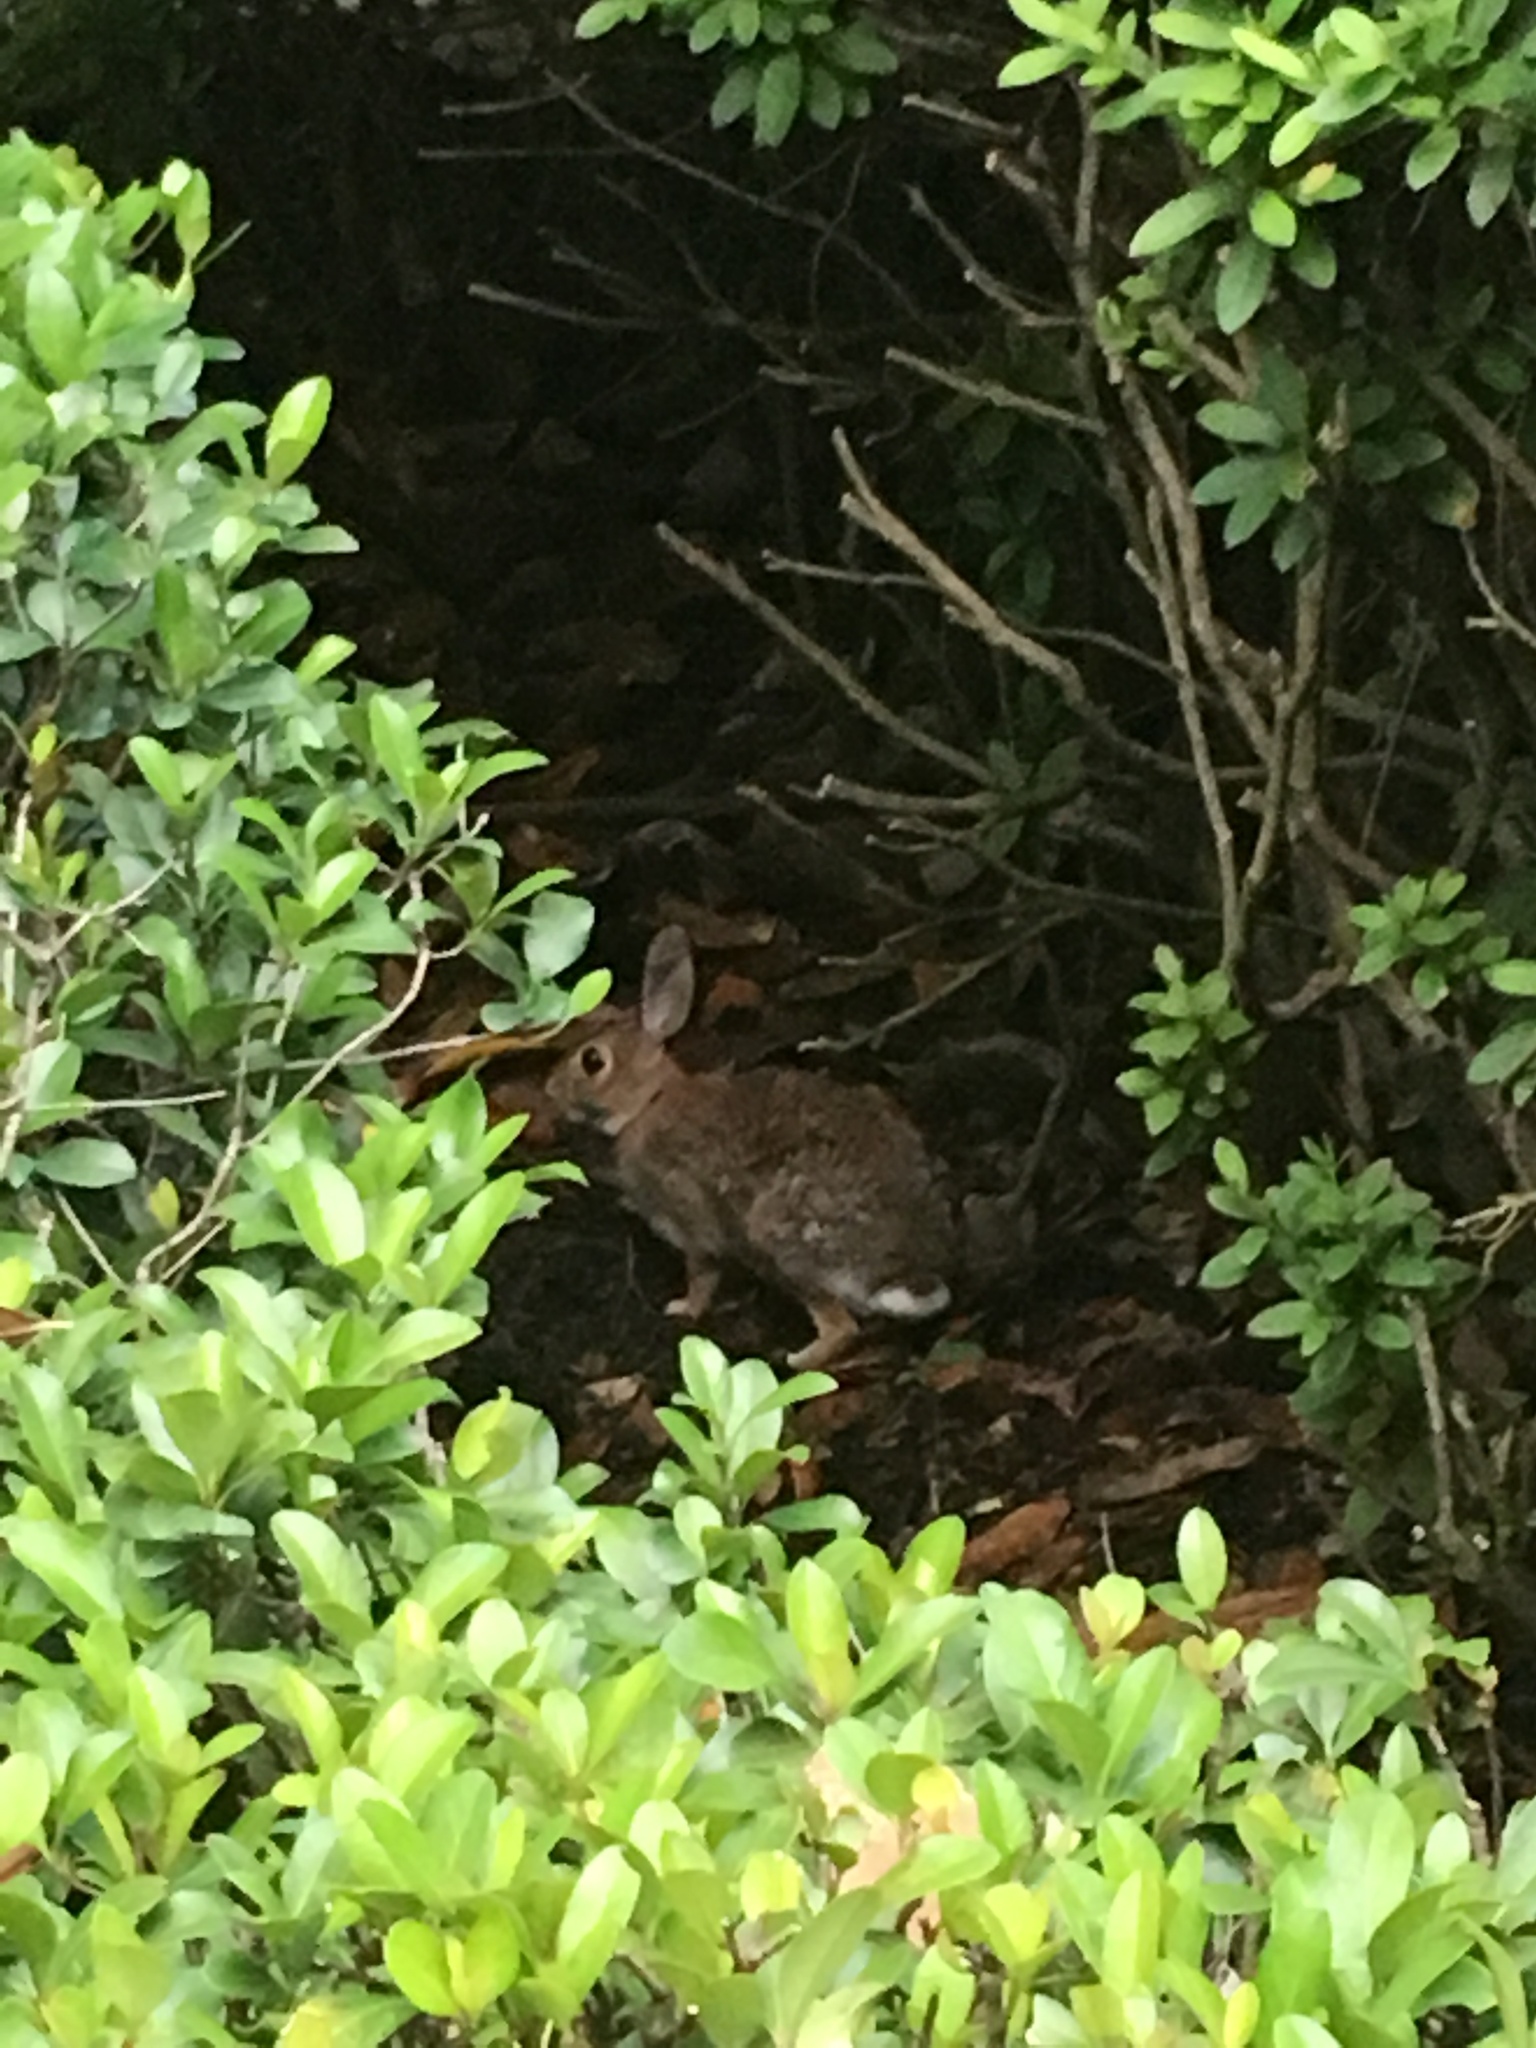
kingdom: Animalia
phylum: Chordata
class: Mammalia
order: Lagomorpha
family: Leporidae
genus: Sylvilagus
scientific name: Sylvilagus floridanus
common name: Eastern cottontail
